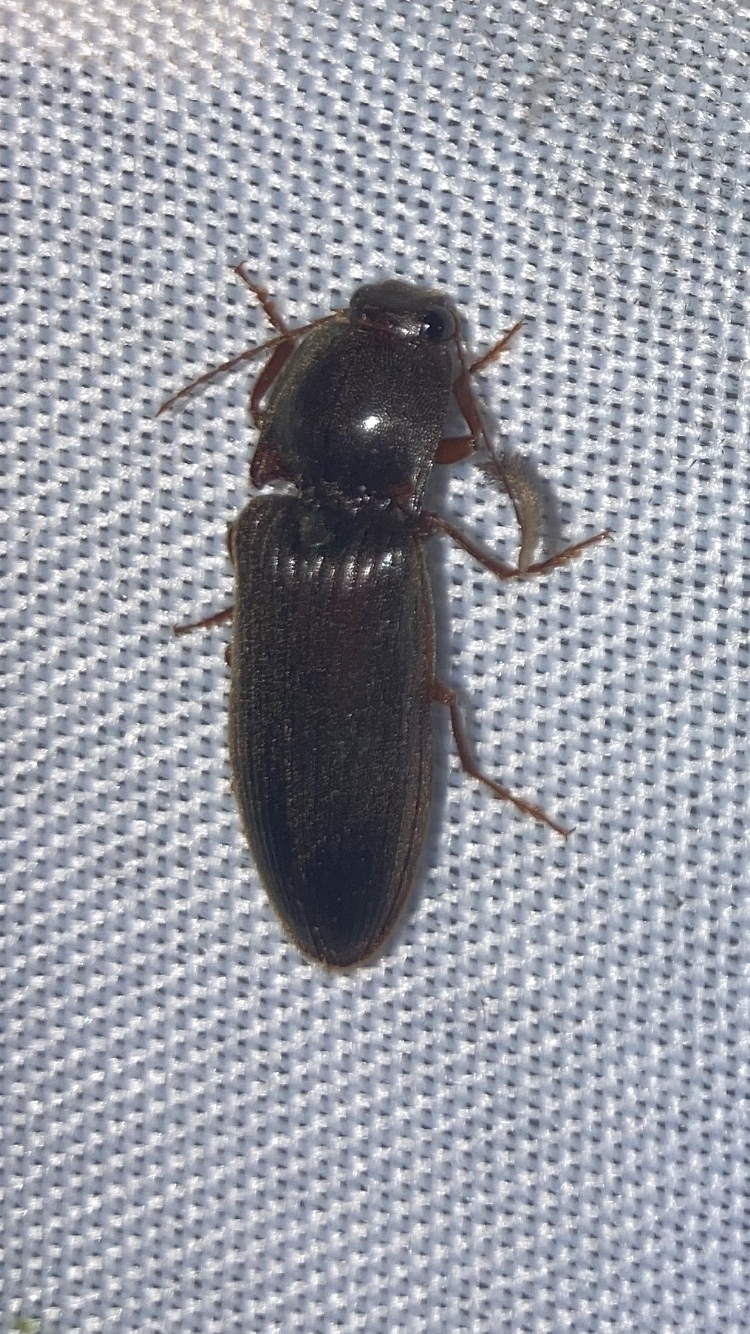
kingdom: Animalia
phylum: Arthropoda
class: Insecta
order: Coleoptera
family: Elateridae
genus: Hemicrepidius
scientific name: Hemicrepidius
